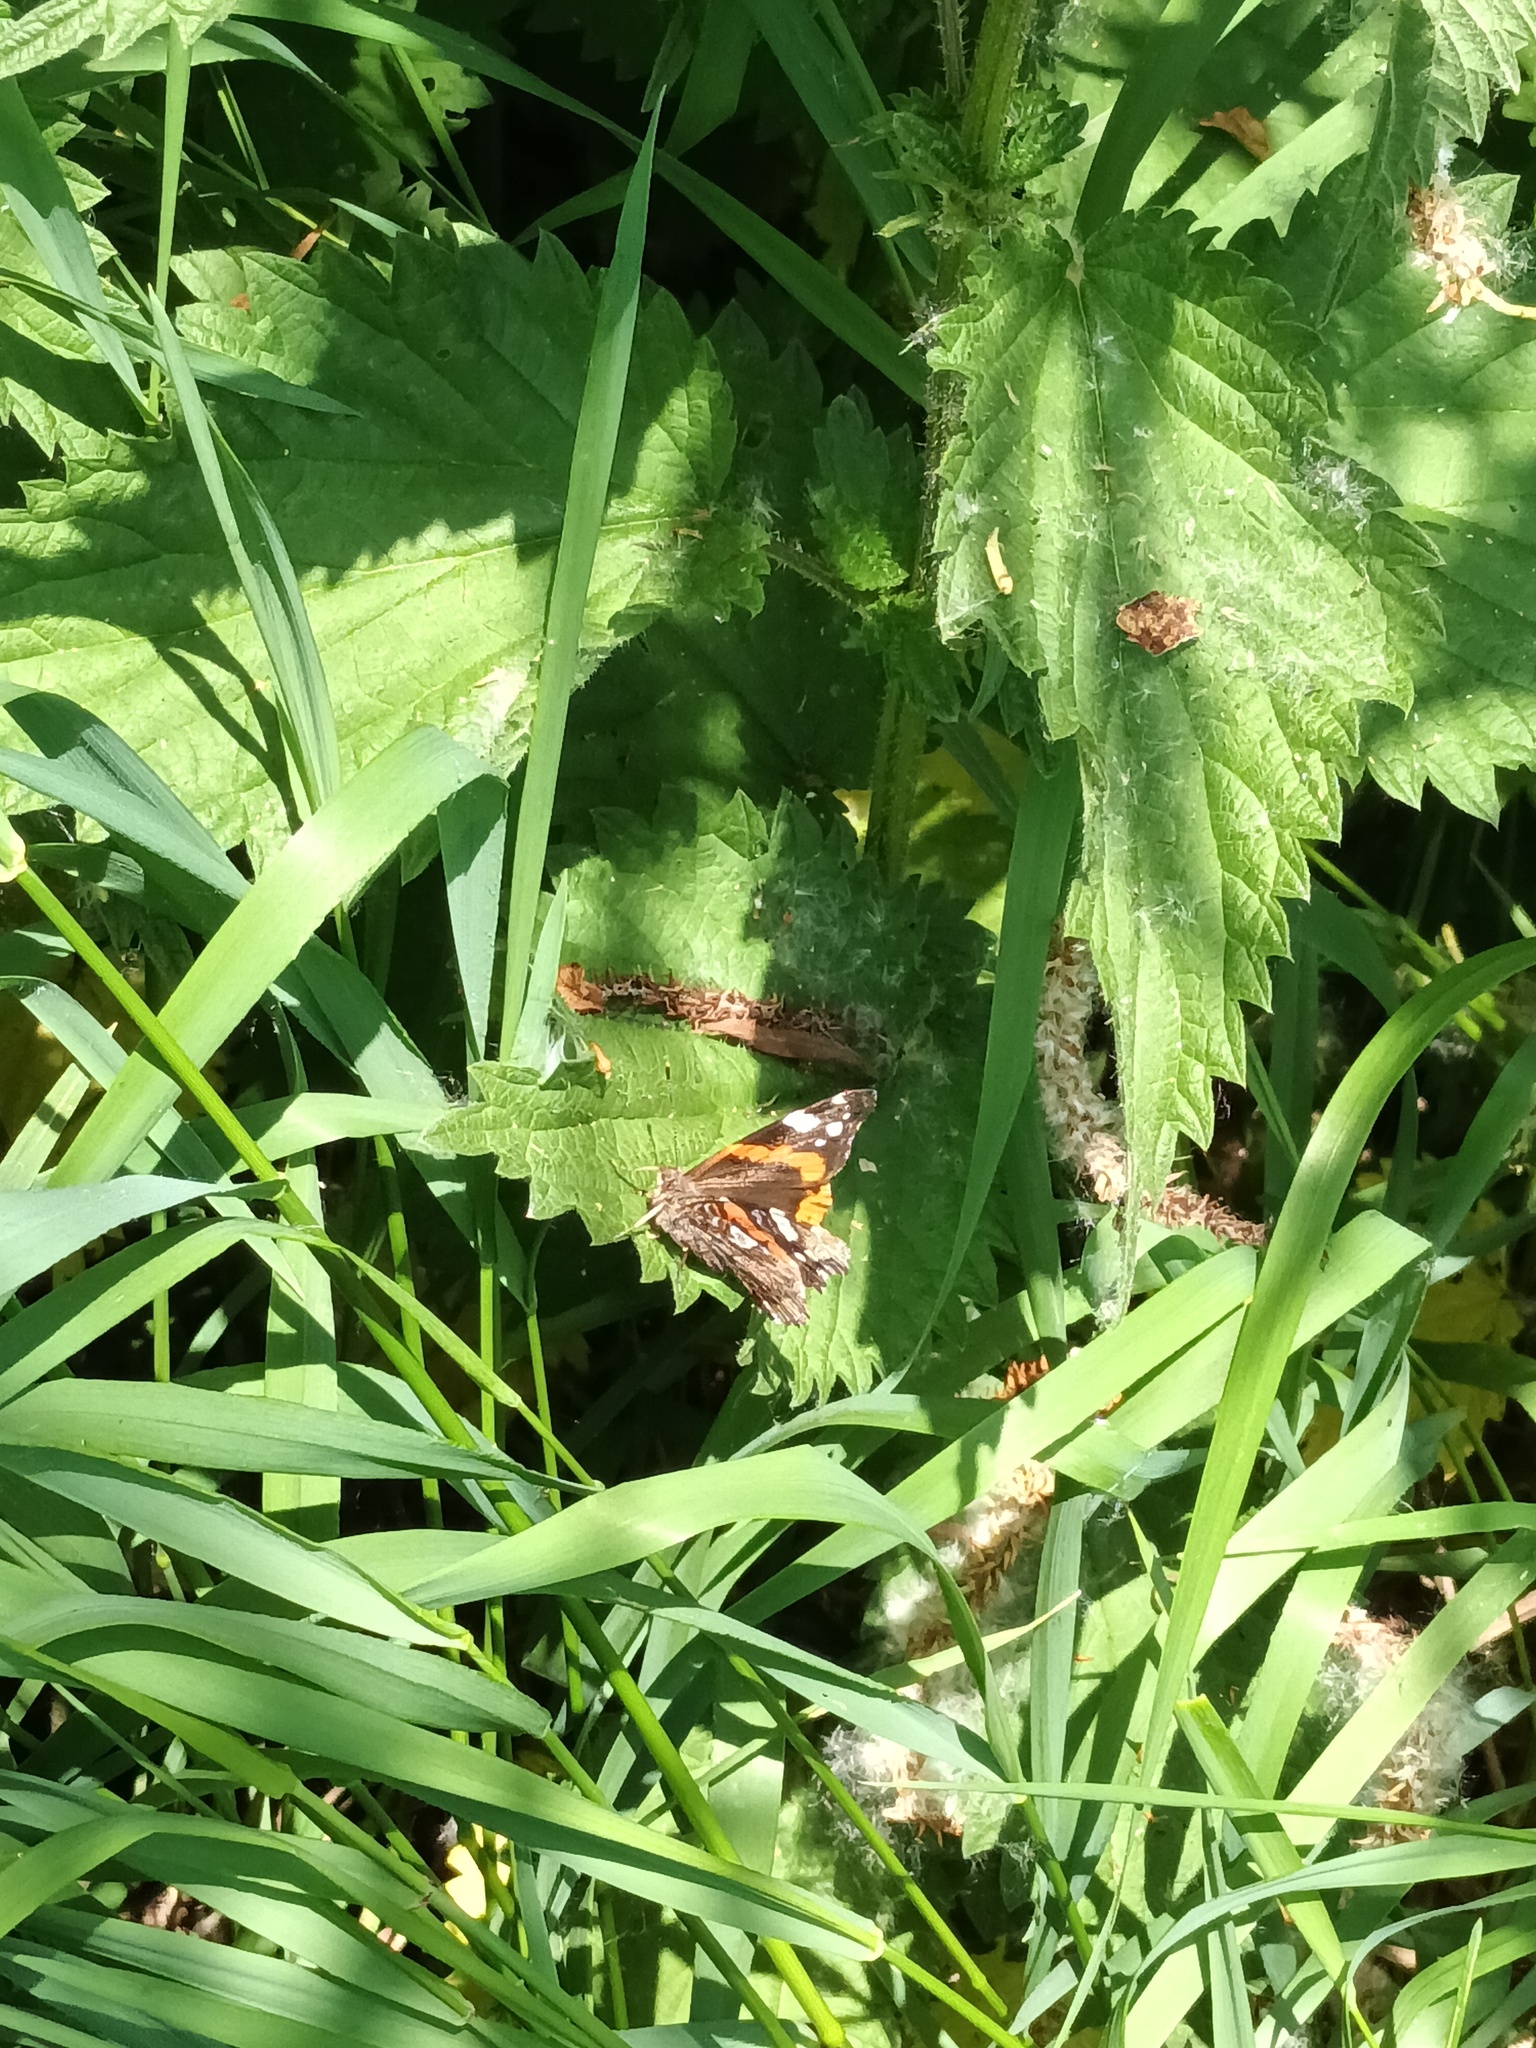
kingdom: Animalia
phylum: Arthropoda
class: Insecta
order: Lepidoptera
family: Nymphalidae
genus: Vanessa
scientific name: Vanessa atalanta
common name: Red admiral
